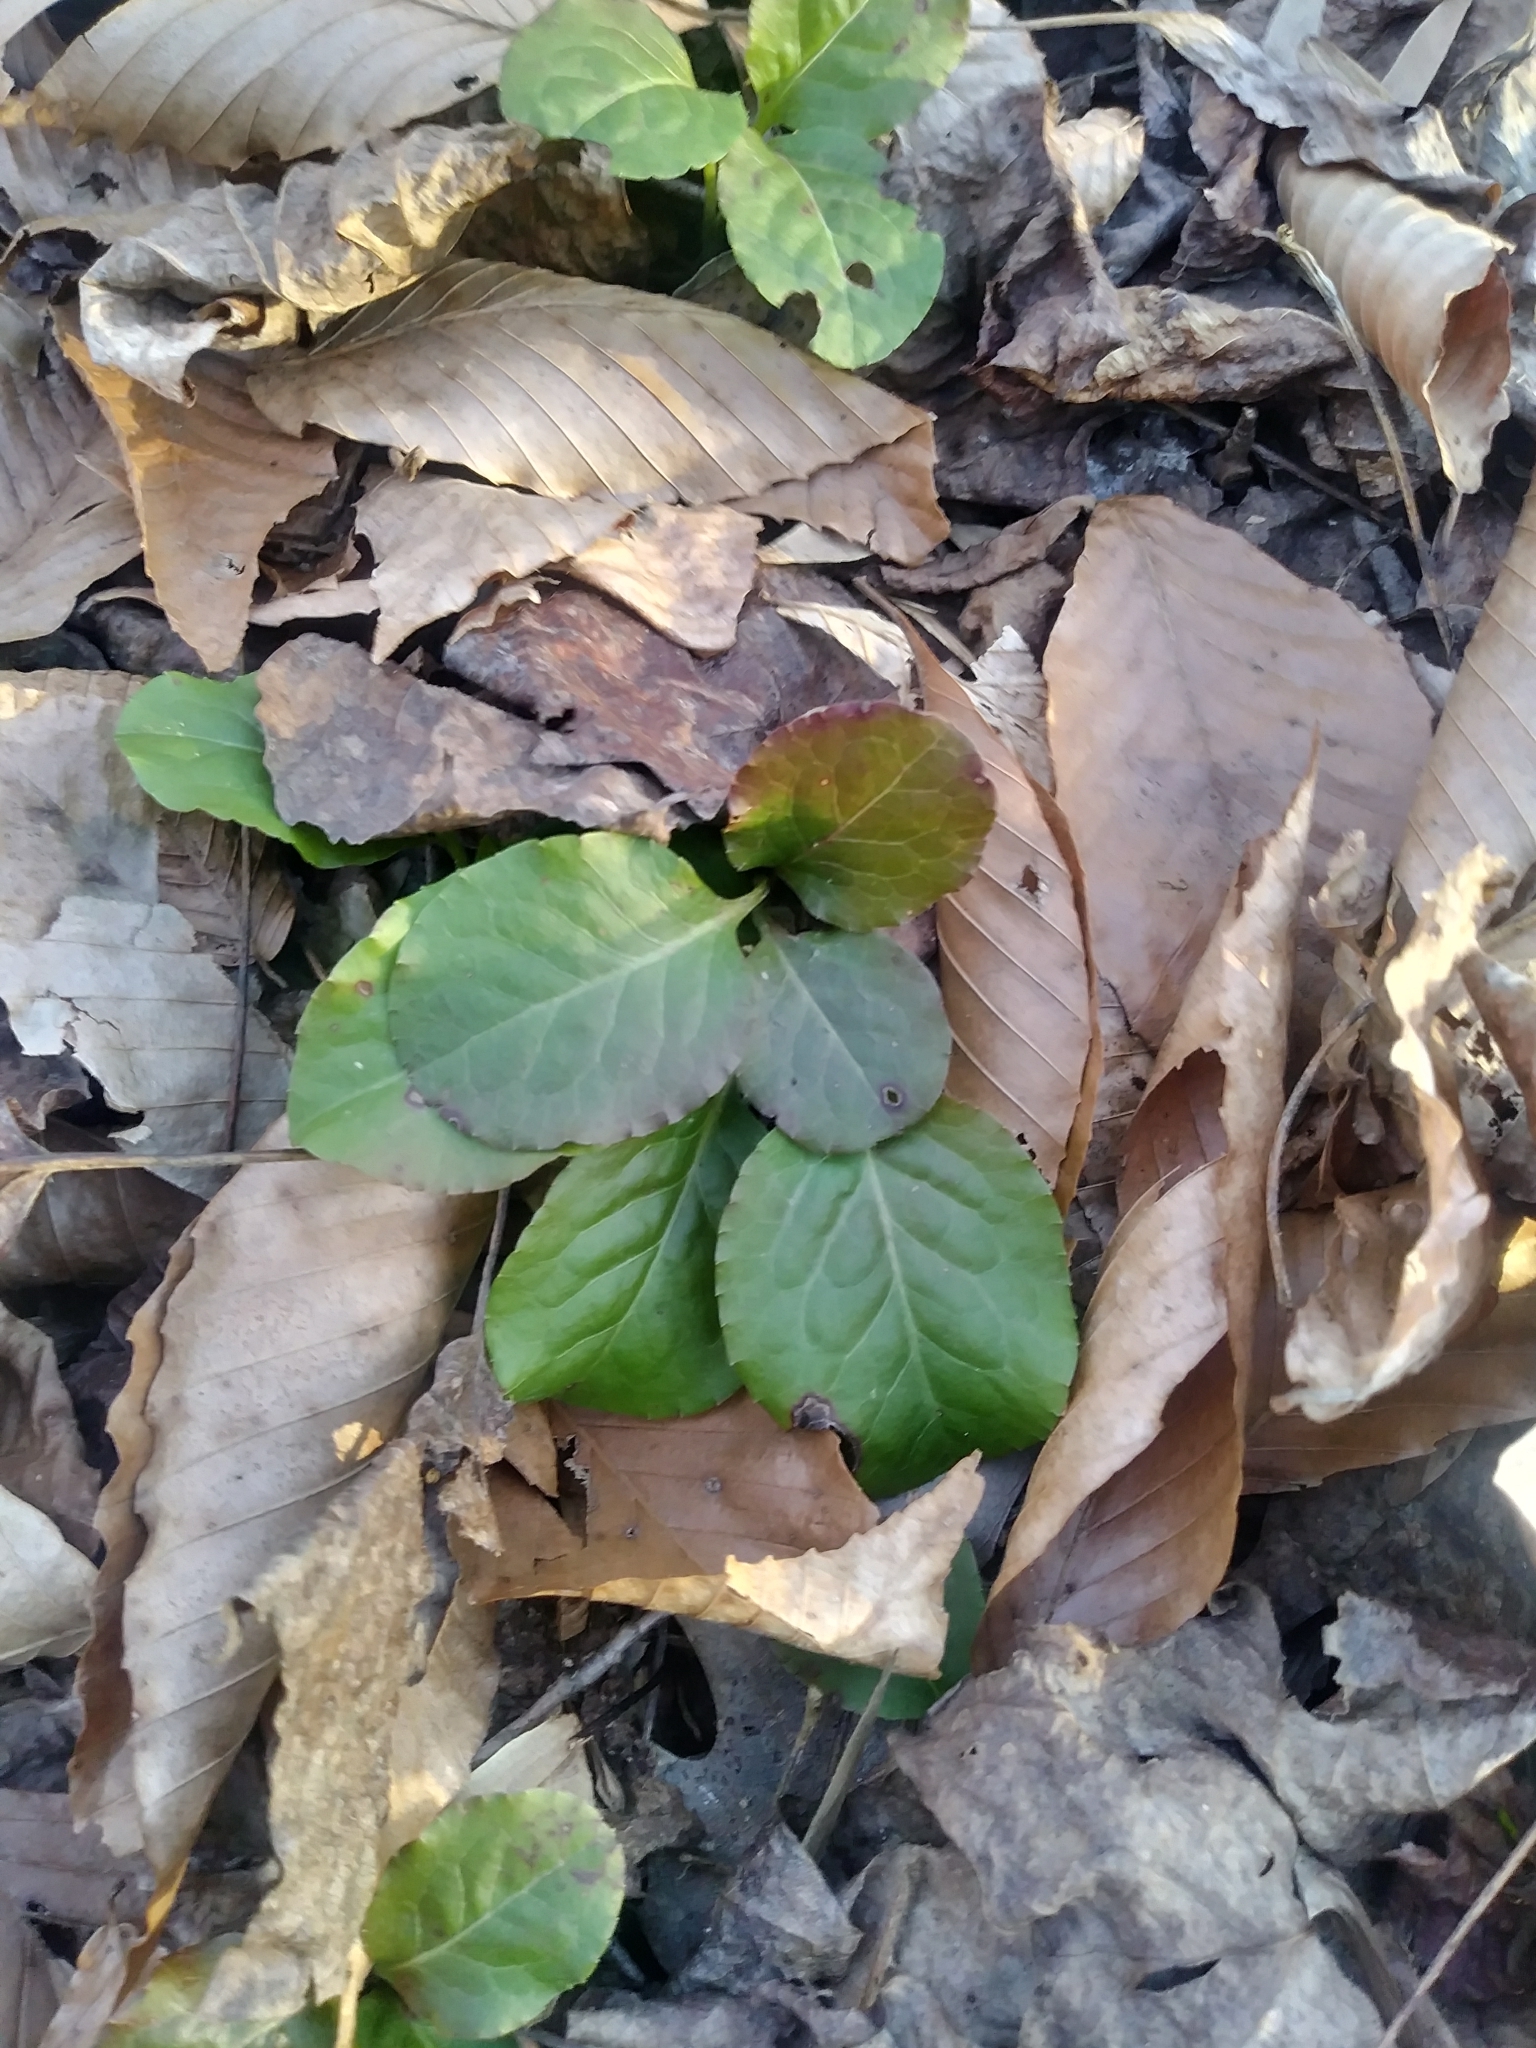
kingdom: Plantae
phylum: Tracheophyta
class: Magnoliopsida
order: Ericales
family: Ericaceae
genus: Pyrola
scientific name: Pyrola elliptica
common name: Shinleaf
